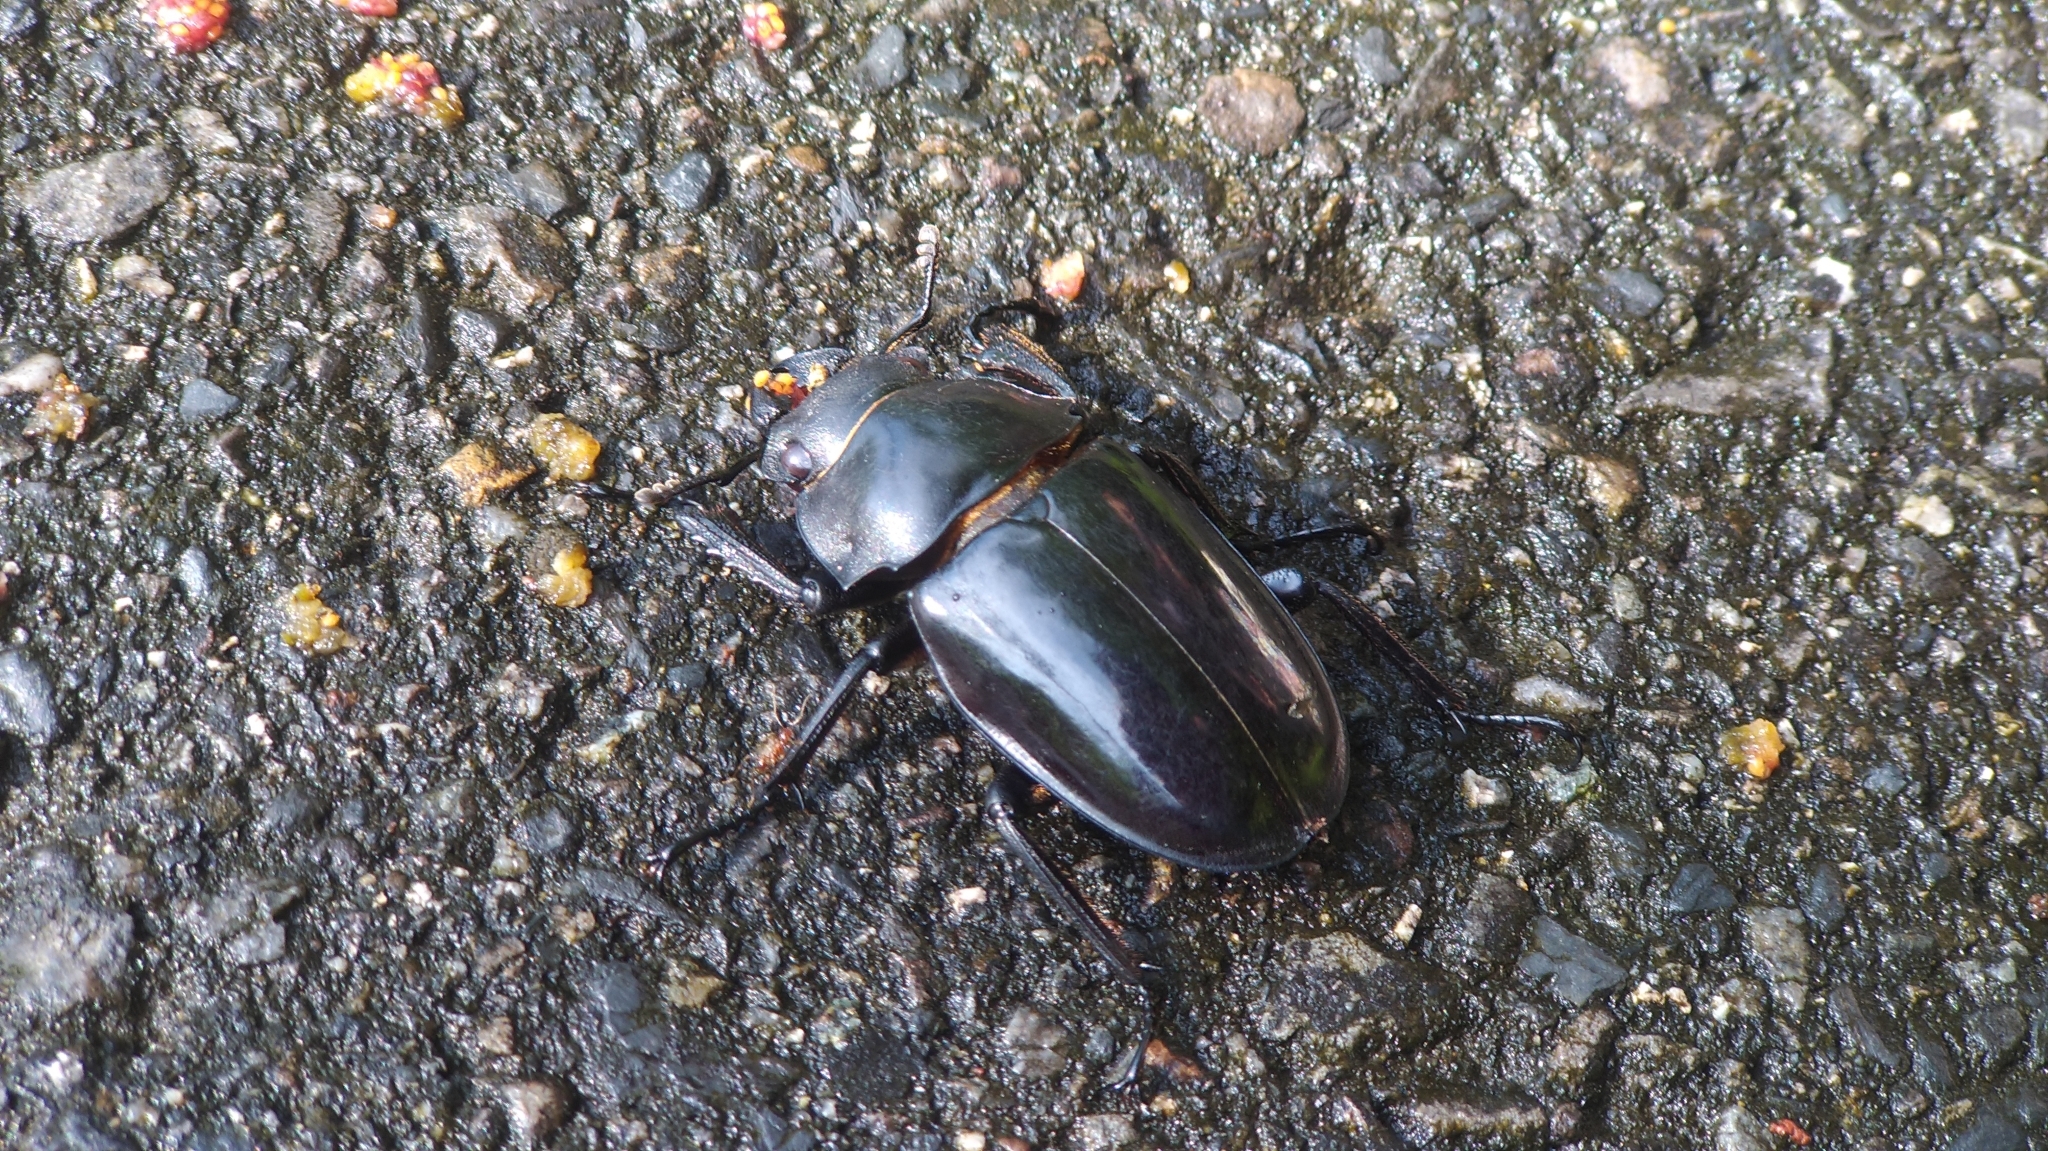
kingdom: Animalia
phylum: Arthropoda
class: Insecta
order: Coleoptera
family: Lucanidae
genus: Odontolabis
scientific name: Odontolabis siva
